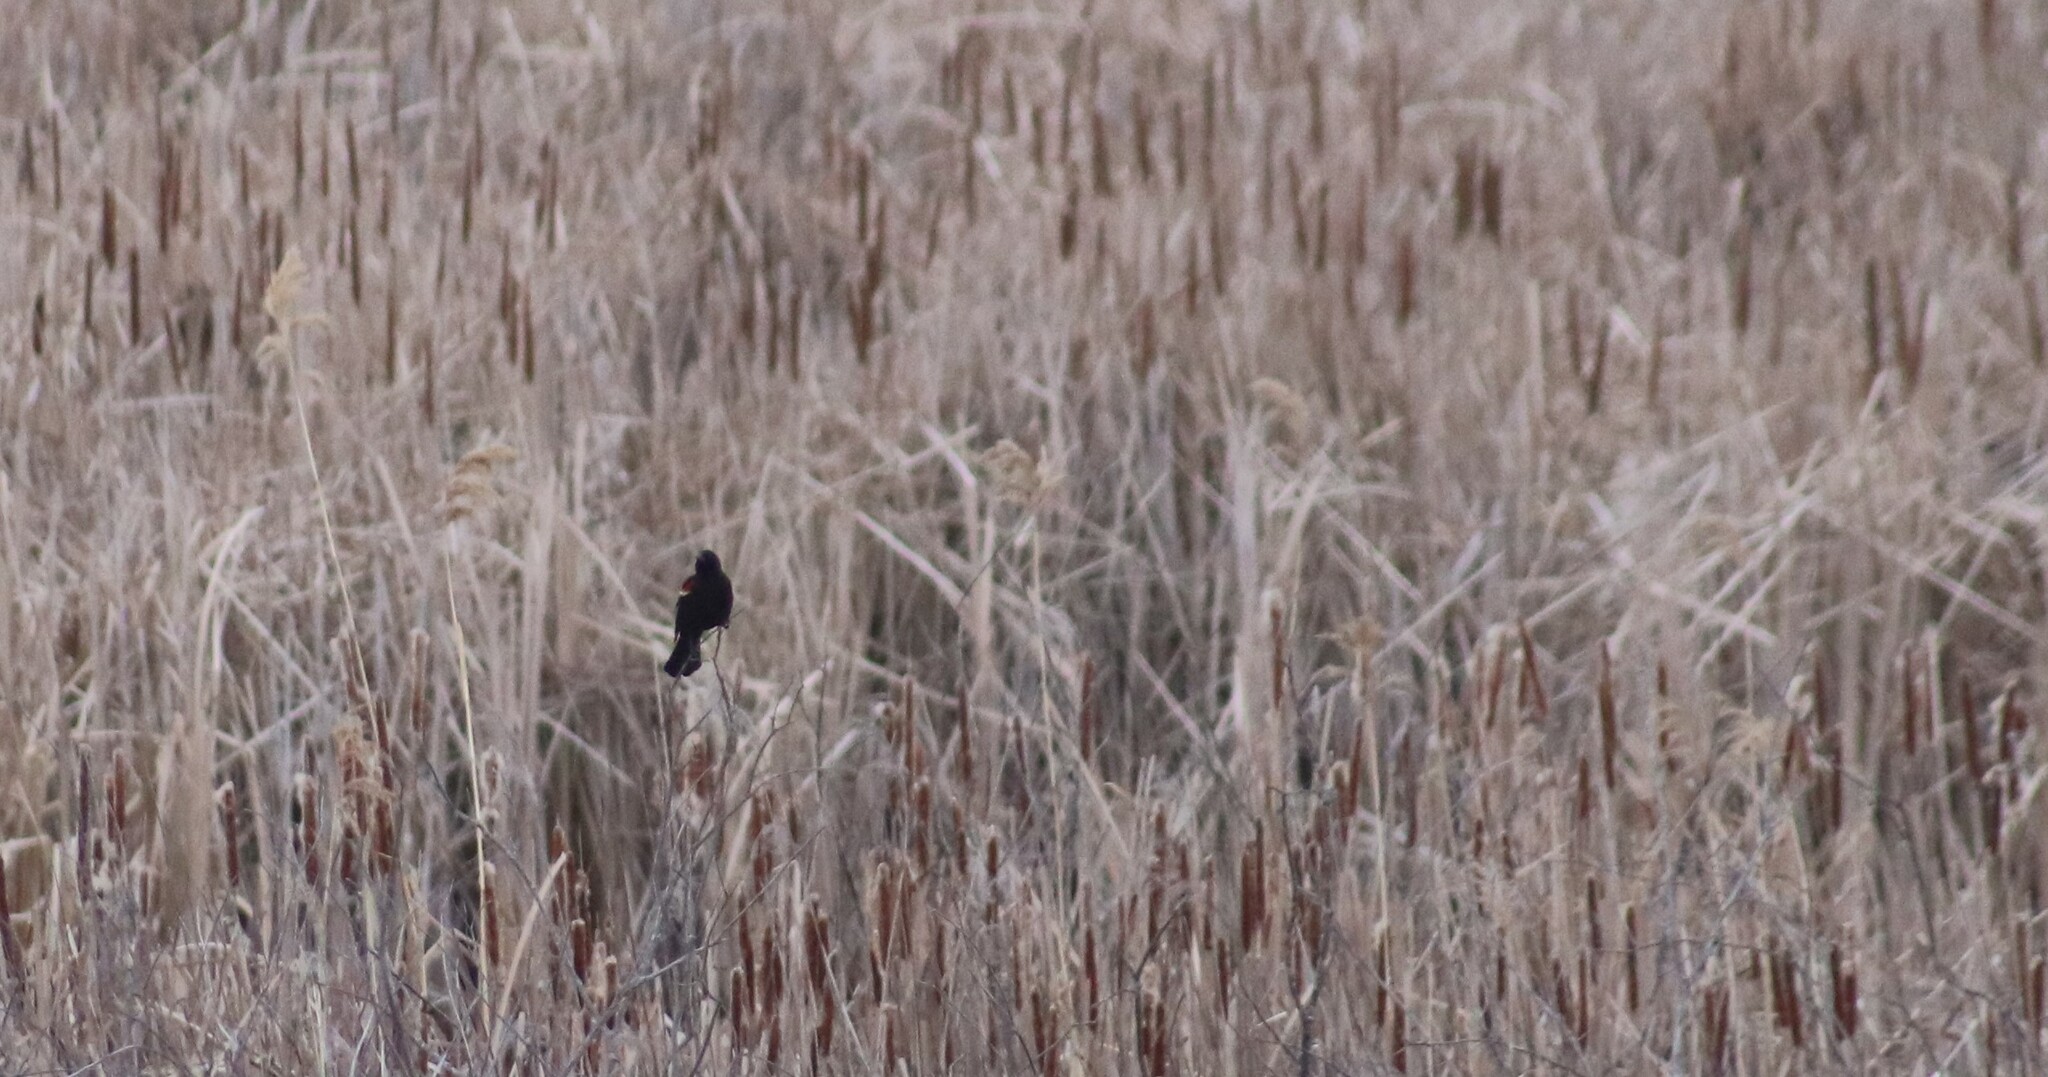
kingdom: Animalia
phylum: Chordata
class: Aves
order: Passeriformes
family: Icteridae
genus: Agelaius
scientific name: Agelaius phoeniceus
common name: Red-winged blackbird
